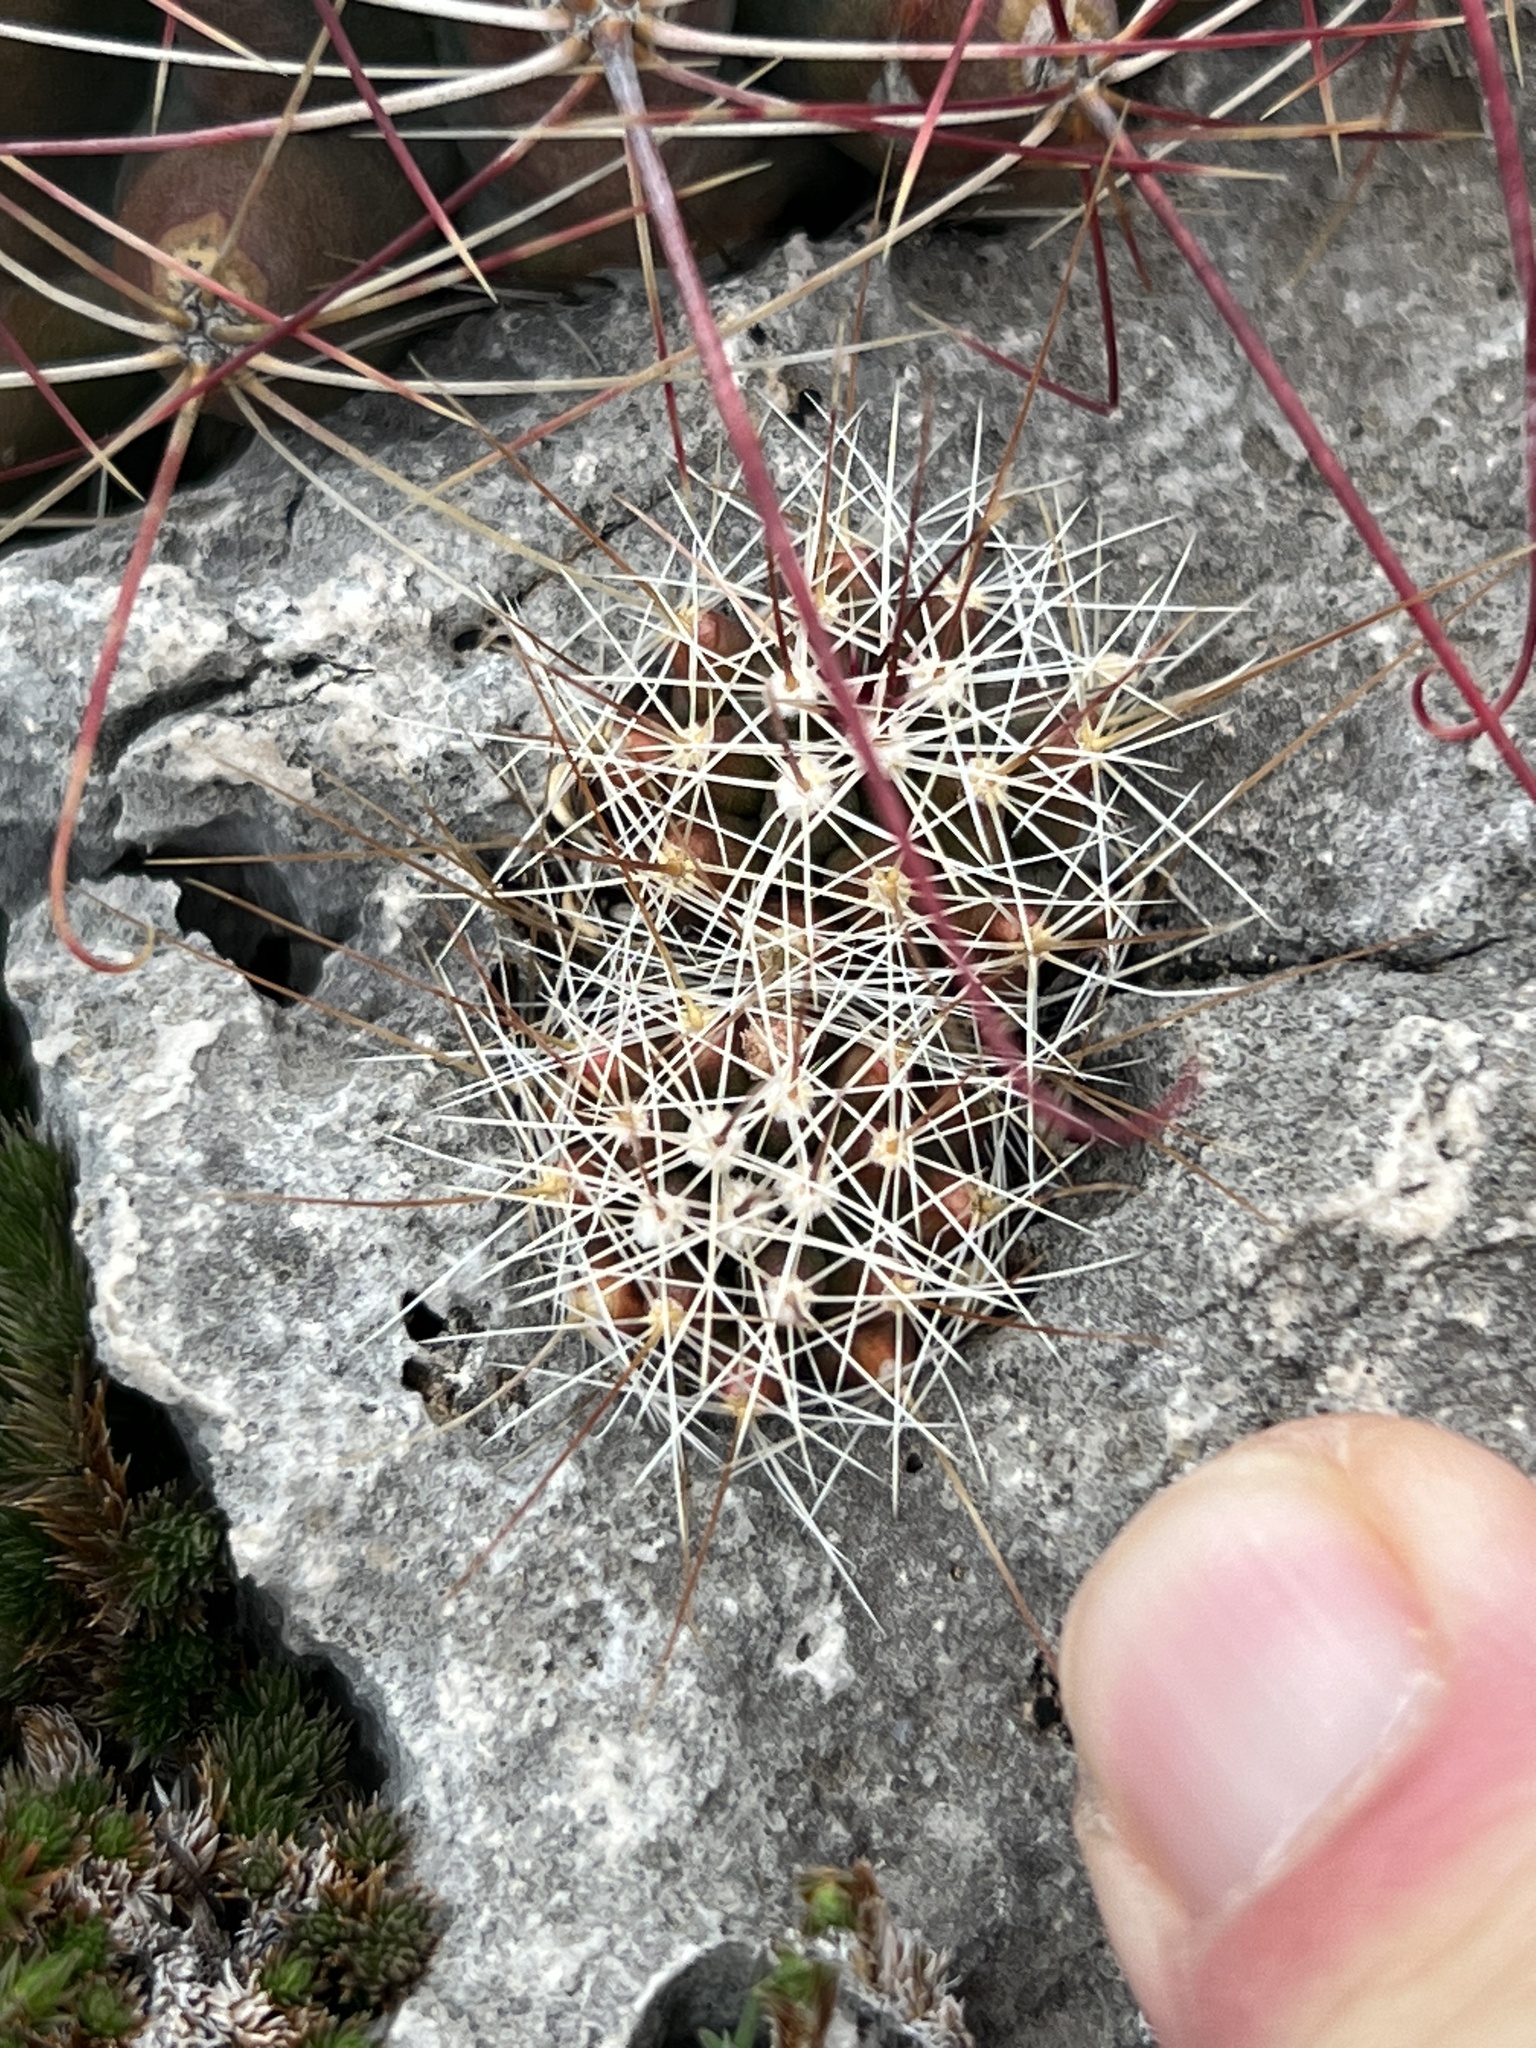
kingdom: Plantae
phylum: Tracheophyta
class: Magnoliopsida
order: Caryophyllales
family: Cactaceae
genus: Bisnaga
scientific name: Bisnaga hamatacantha
